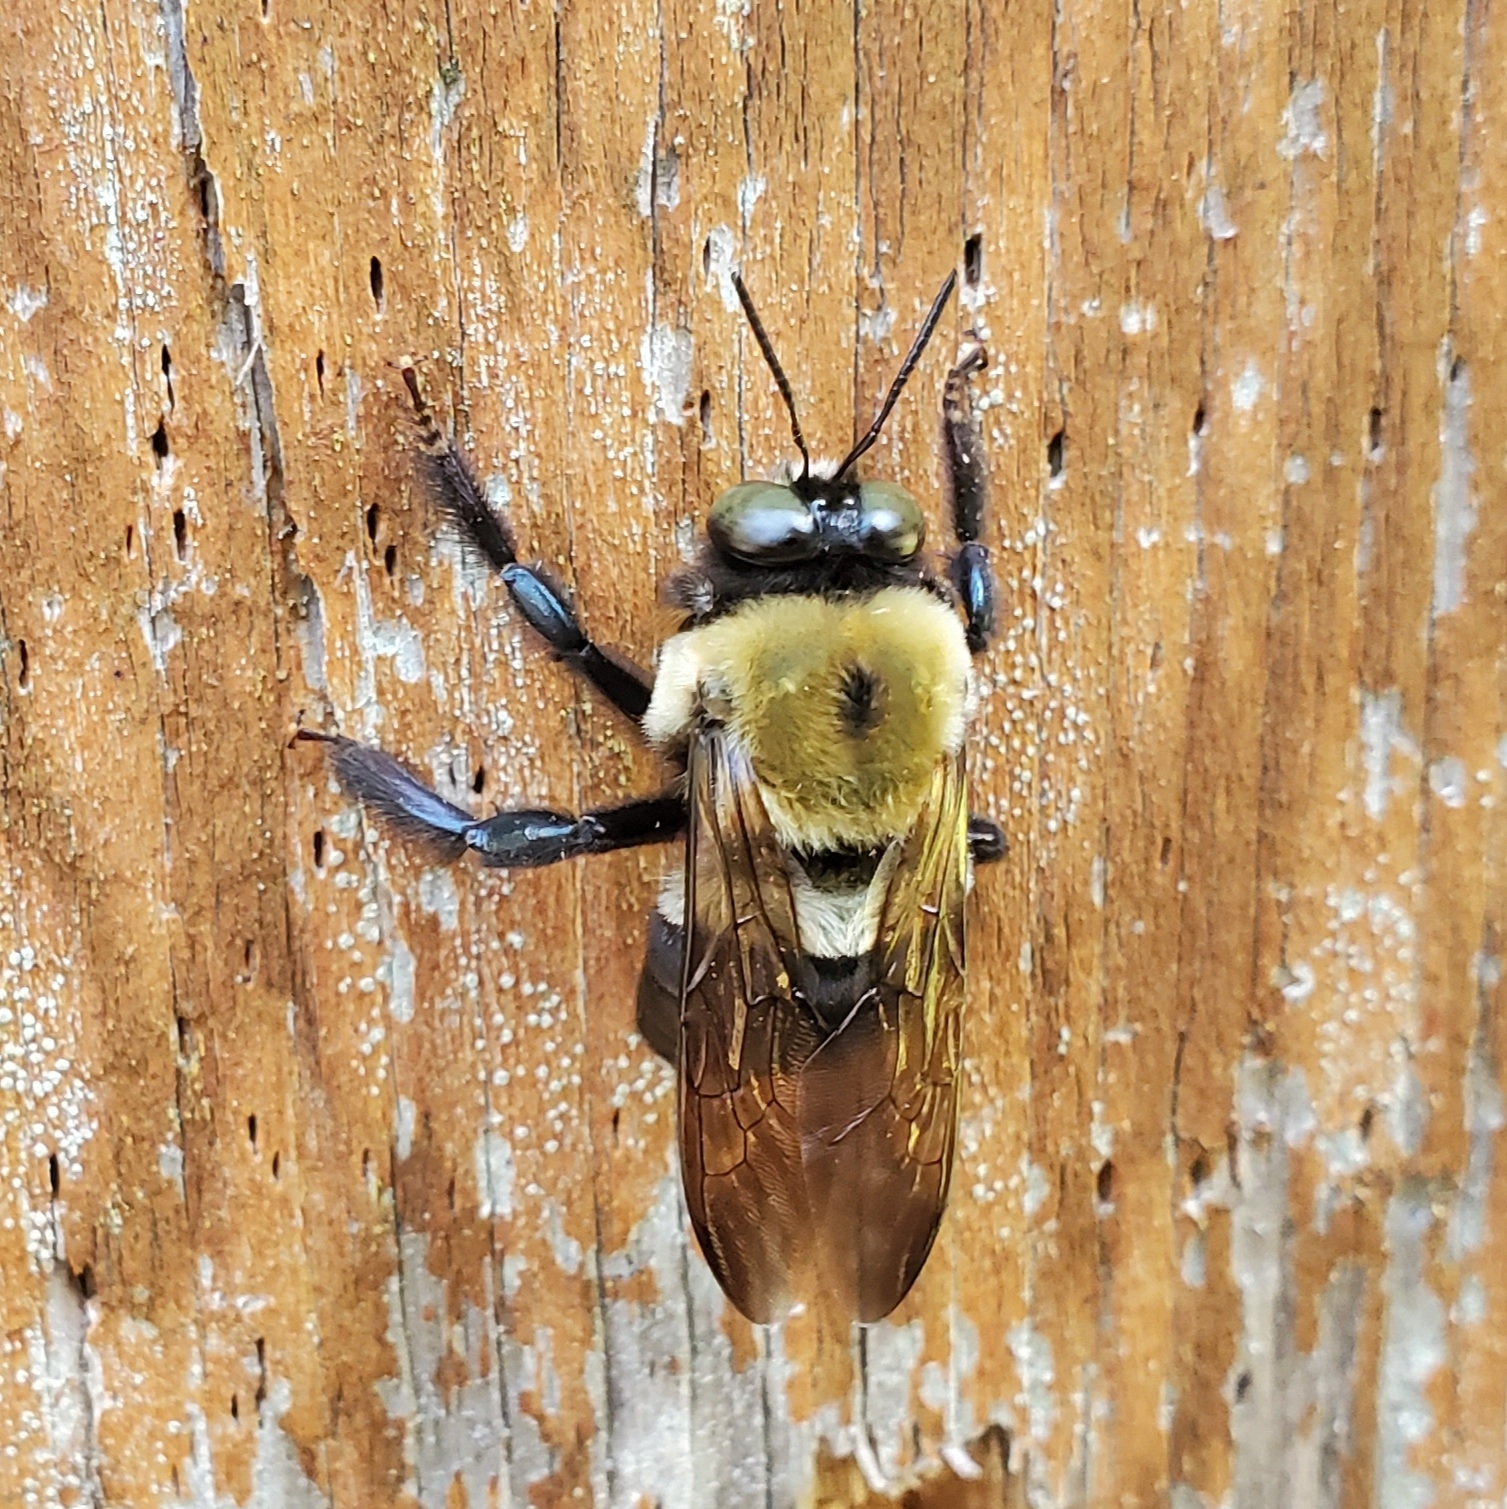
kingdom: Animalia
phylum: Arthropoda
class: Insecta
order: Hymenoptera
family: Apidae
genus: Xylocopa
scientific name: Xylocopa virginica
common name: Carpenter bee
